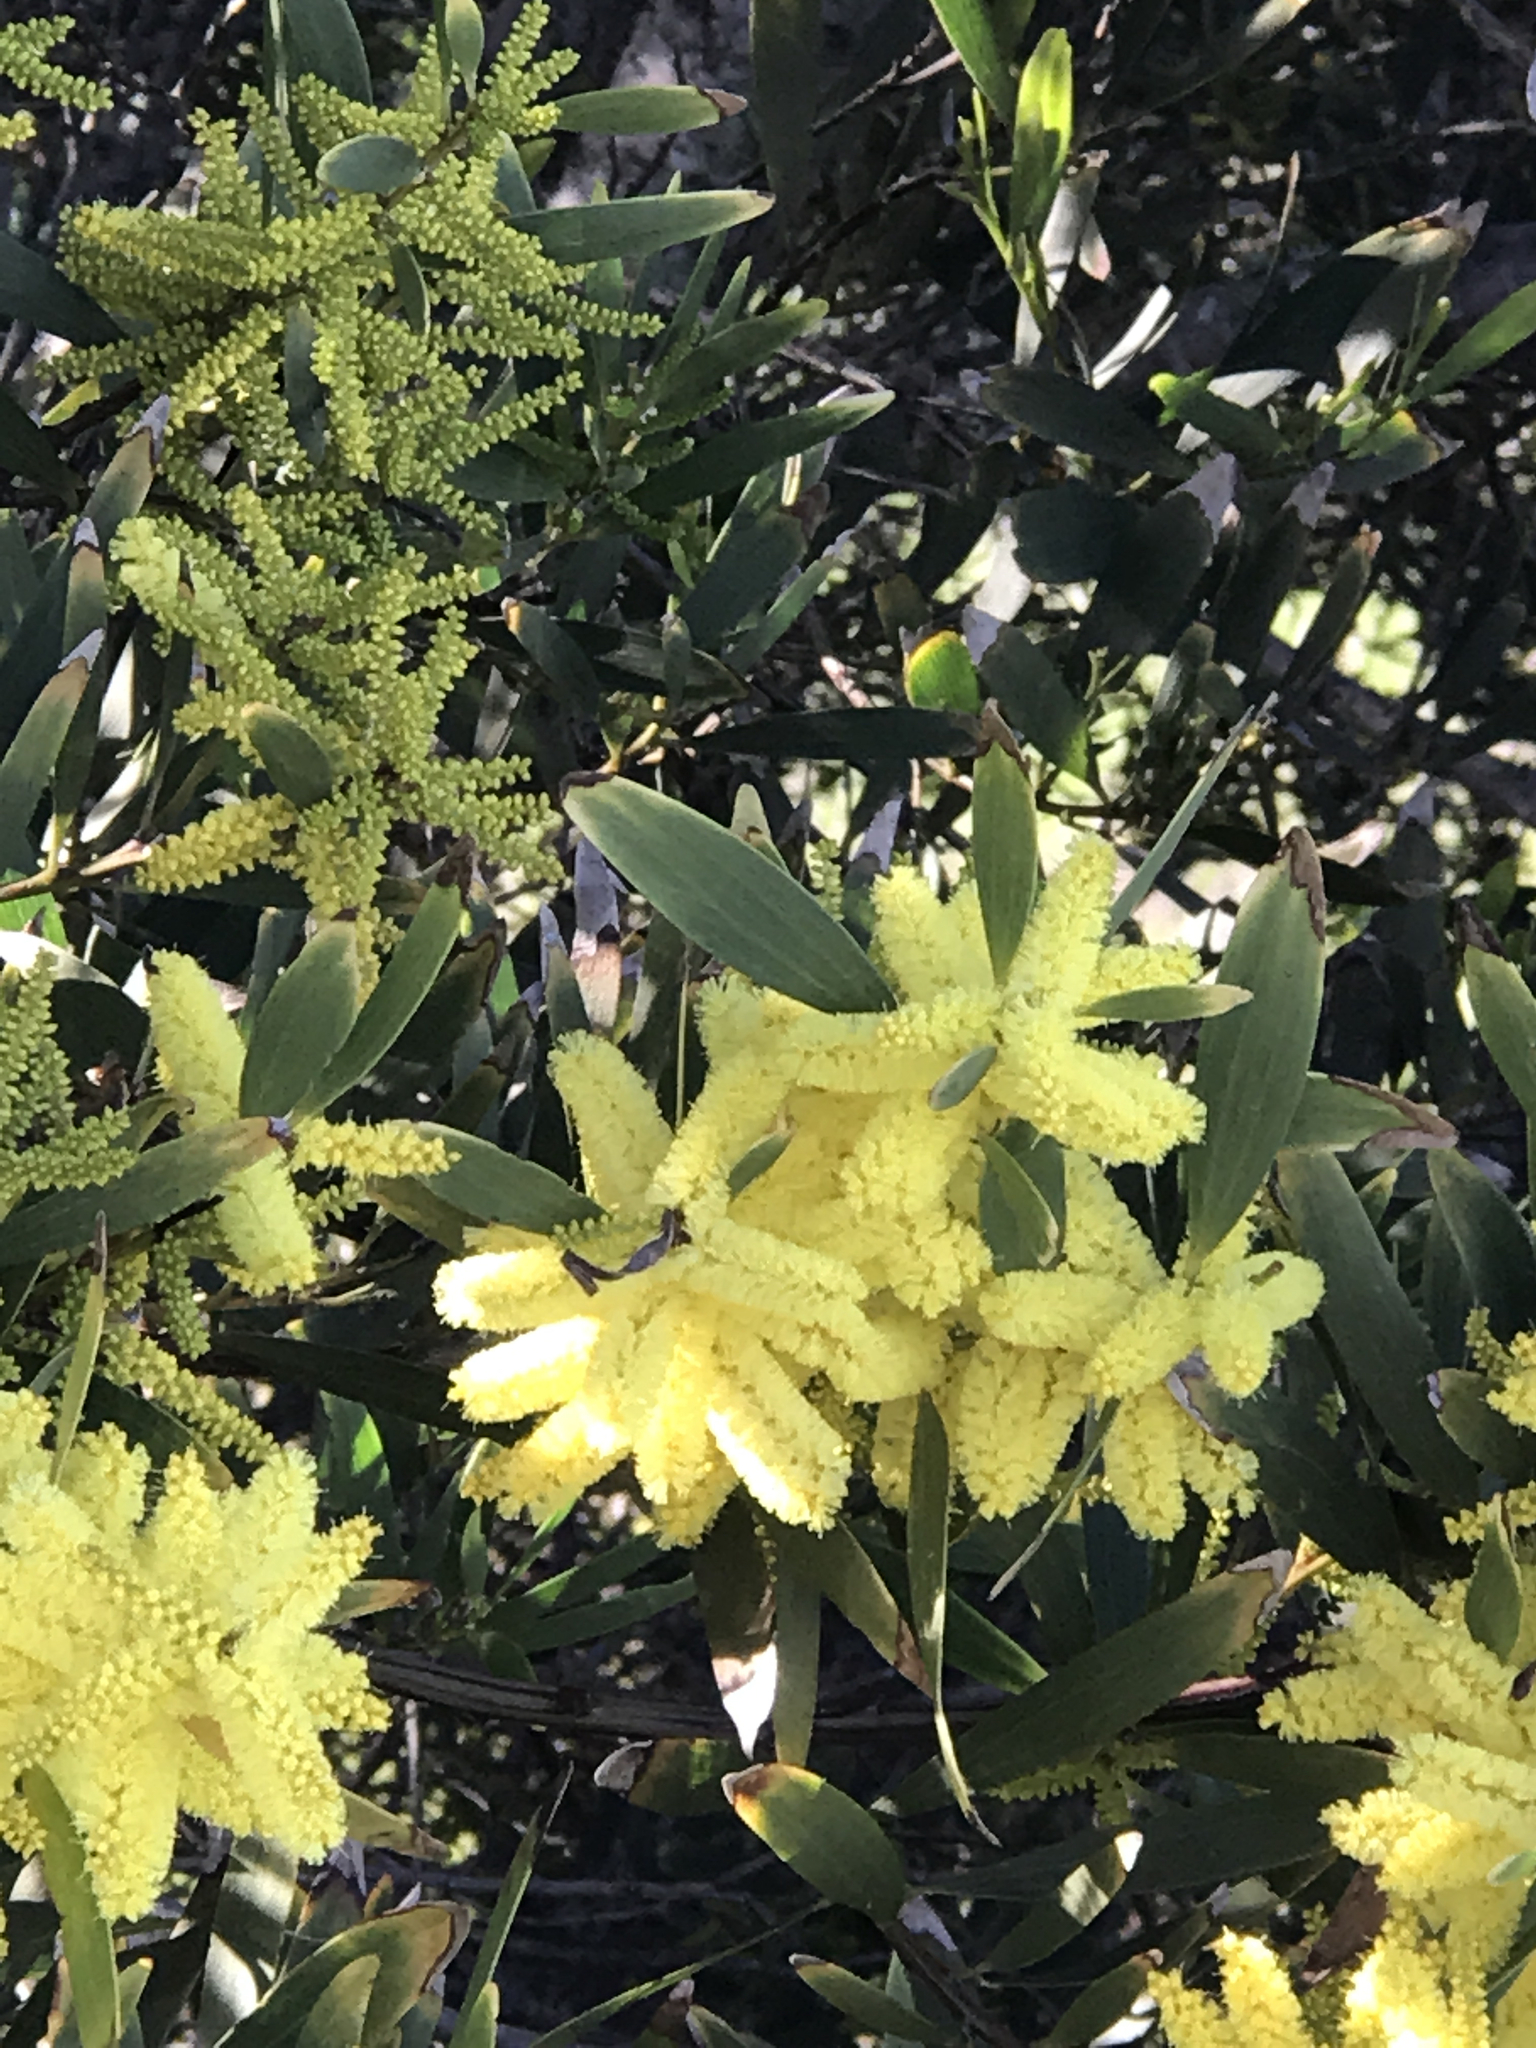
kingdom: Plantae
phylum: Tracheophyta
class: Magnoliopsida
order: Fabales
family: Fabaceae
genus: Acacia
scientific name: Acacia longifolia
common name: Sydney golden wattle
